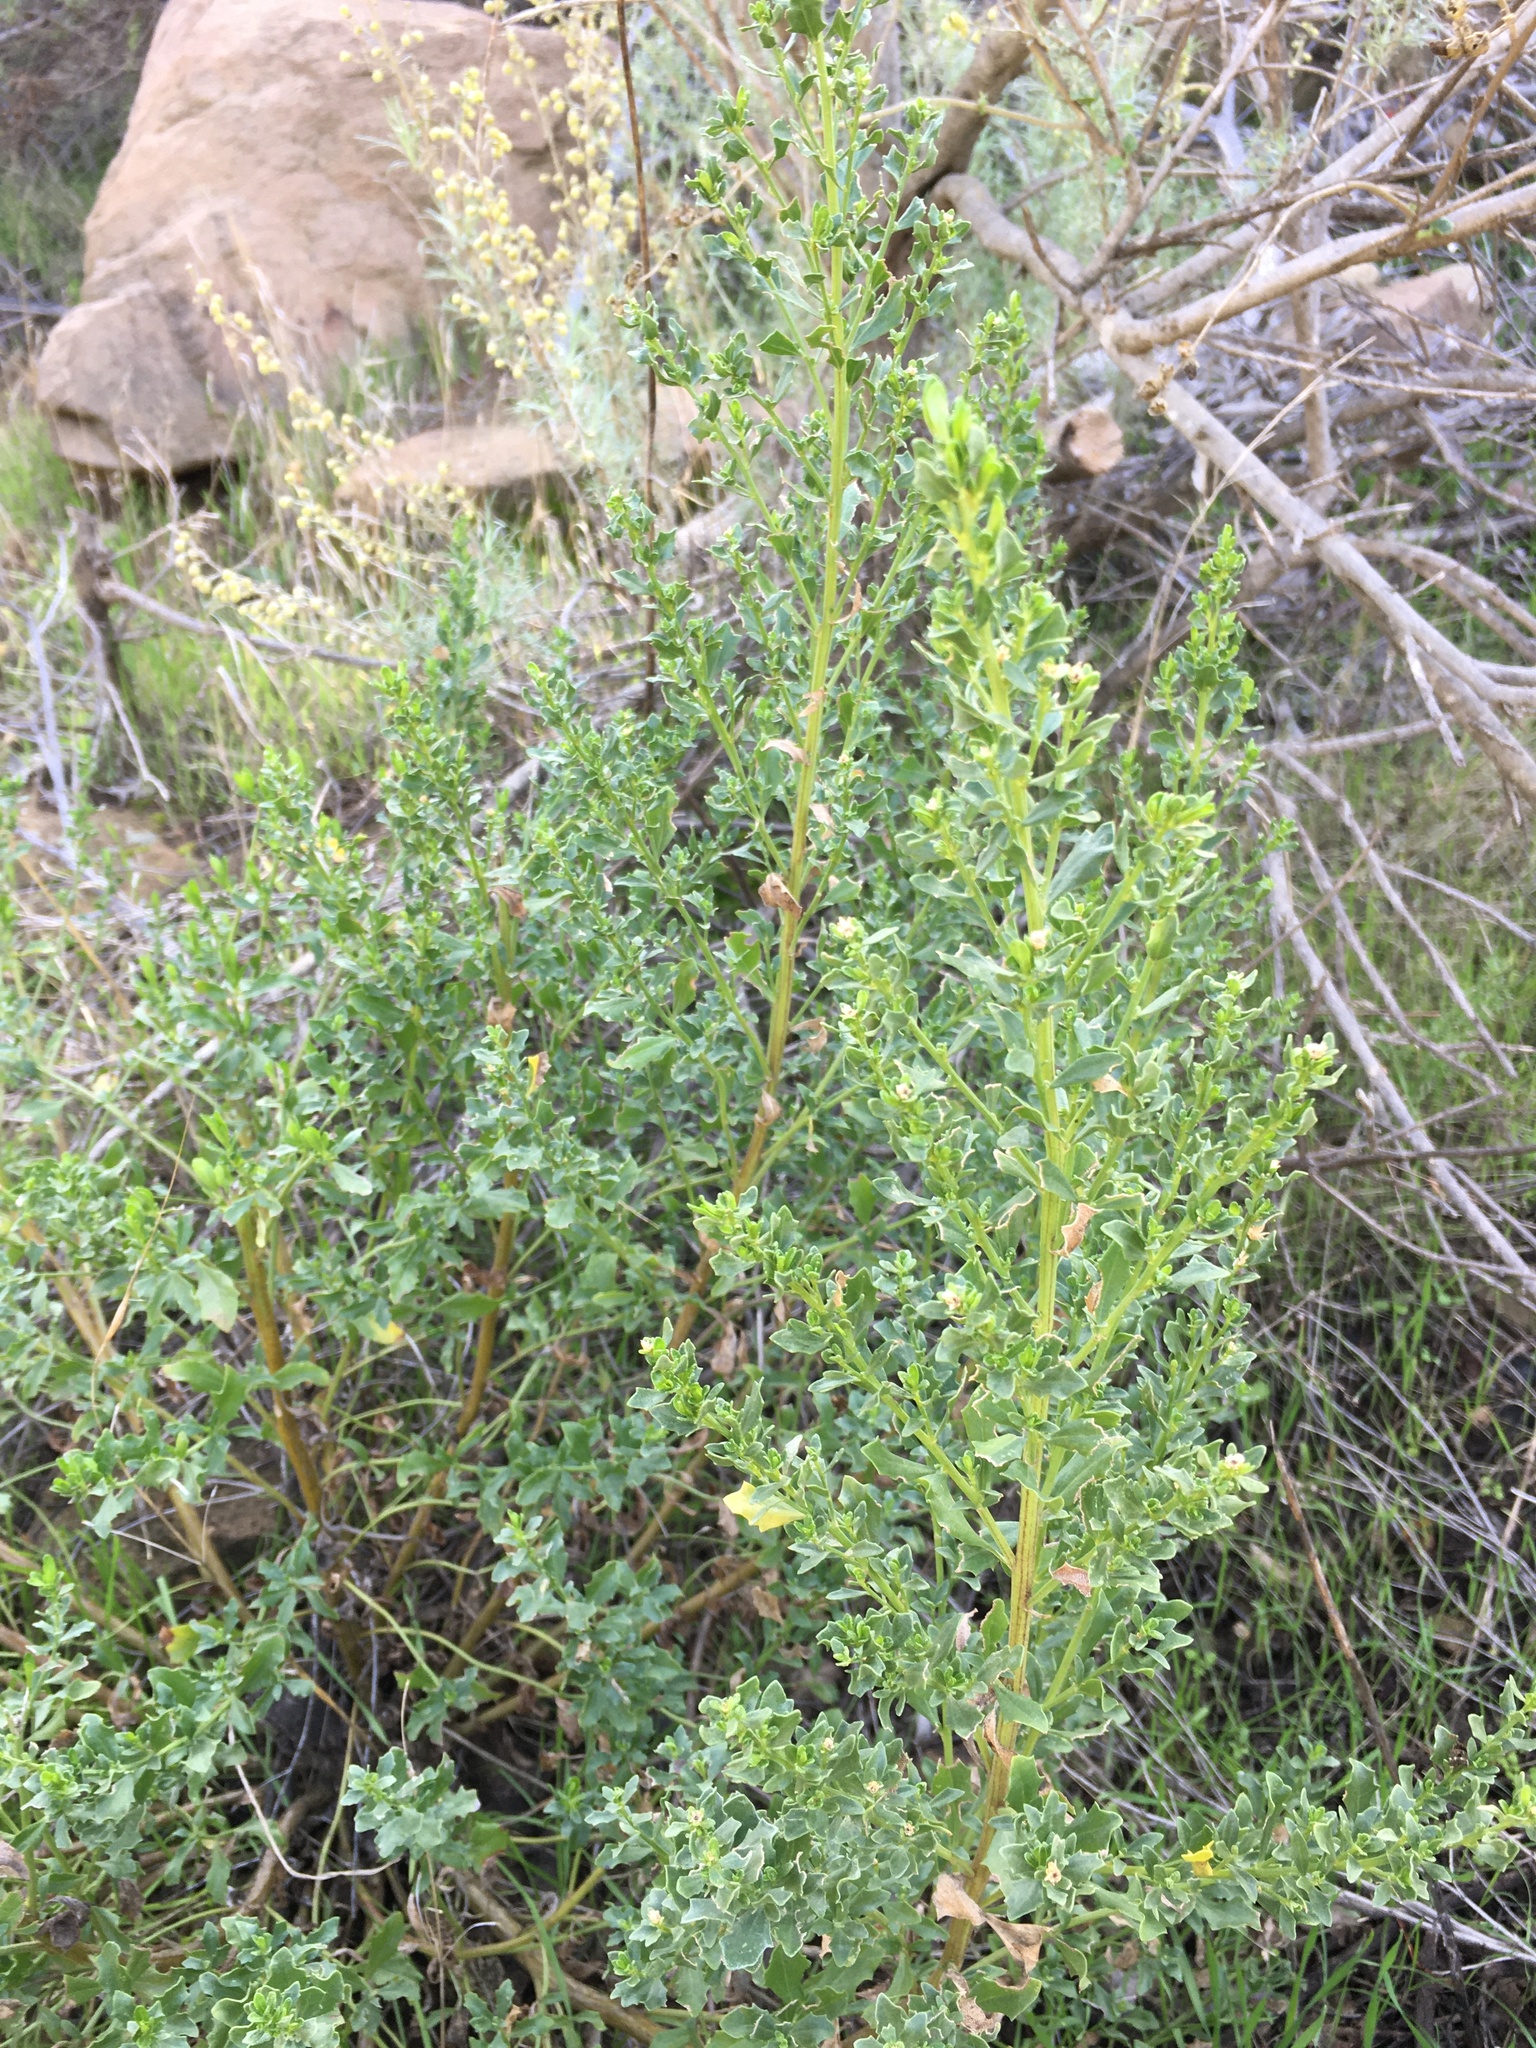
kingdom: Plantae
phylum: Tracheophyta
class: Magnoliopsida
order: Asterales
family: Asteraceae
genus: Baccharis
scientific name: Baccharis pilularis
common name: Coyotebrush
